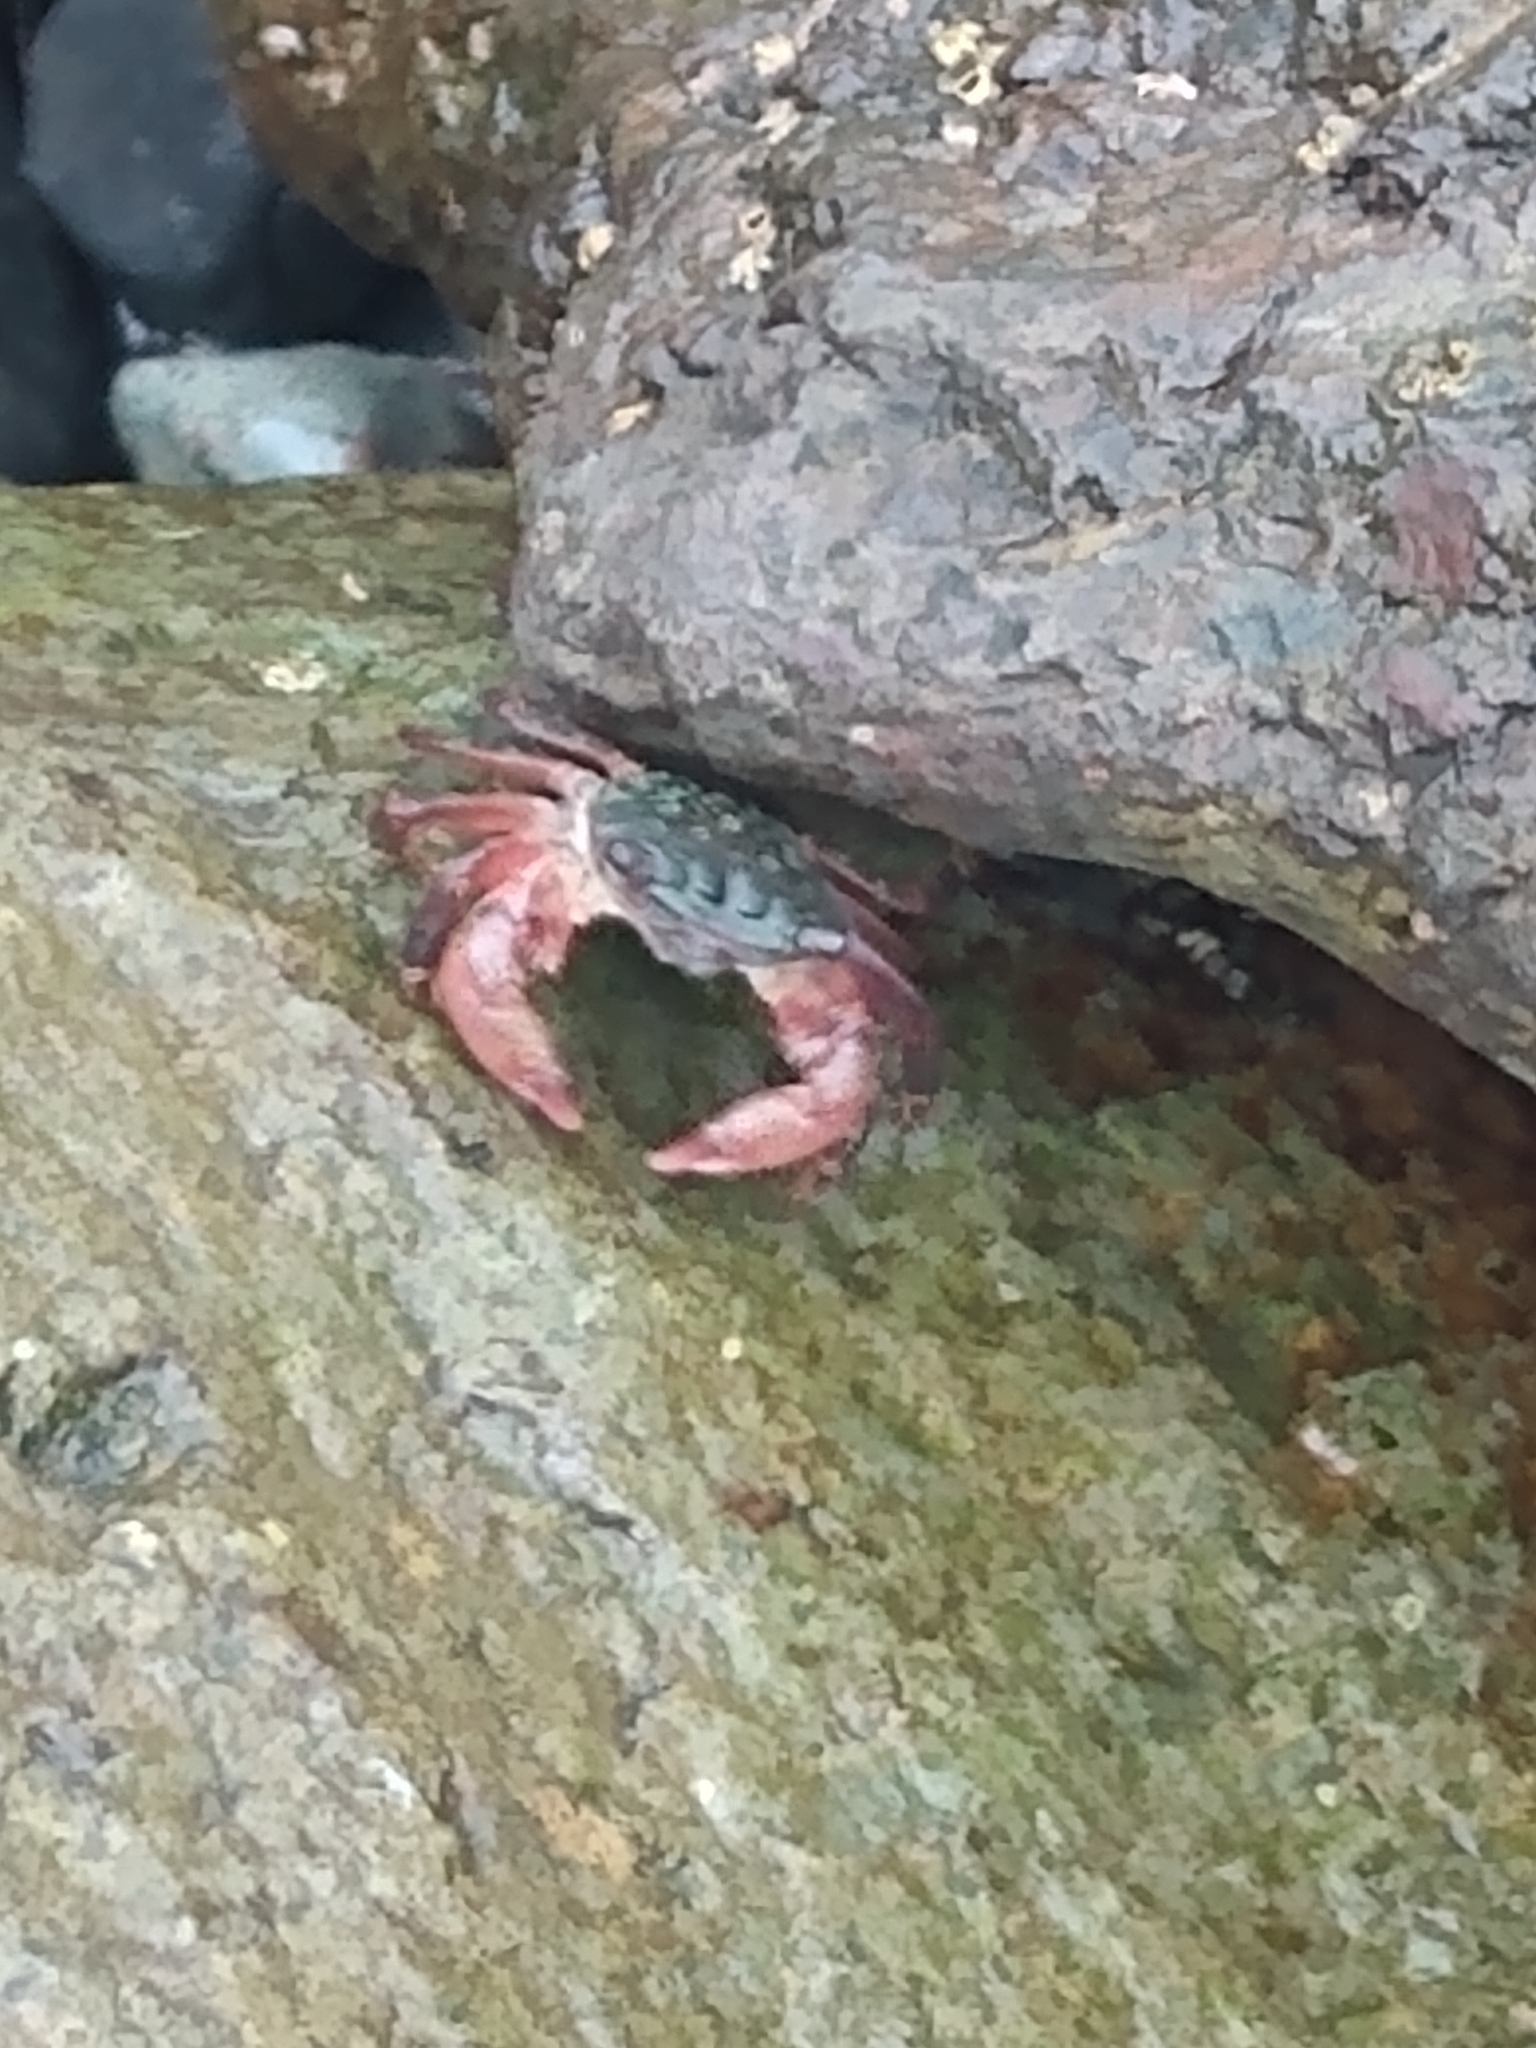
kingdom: Animalia
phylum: Arthropoda
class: Malacostraca
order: Decapoda
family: Grapsidae
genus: Pachygrapsus
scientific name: Pachygrapsus crassipes
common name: Striped shore crab
